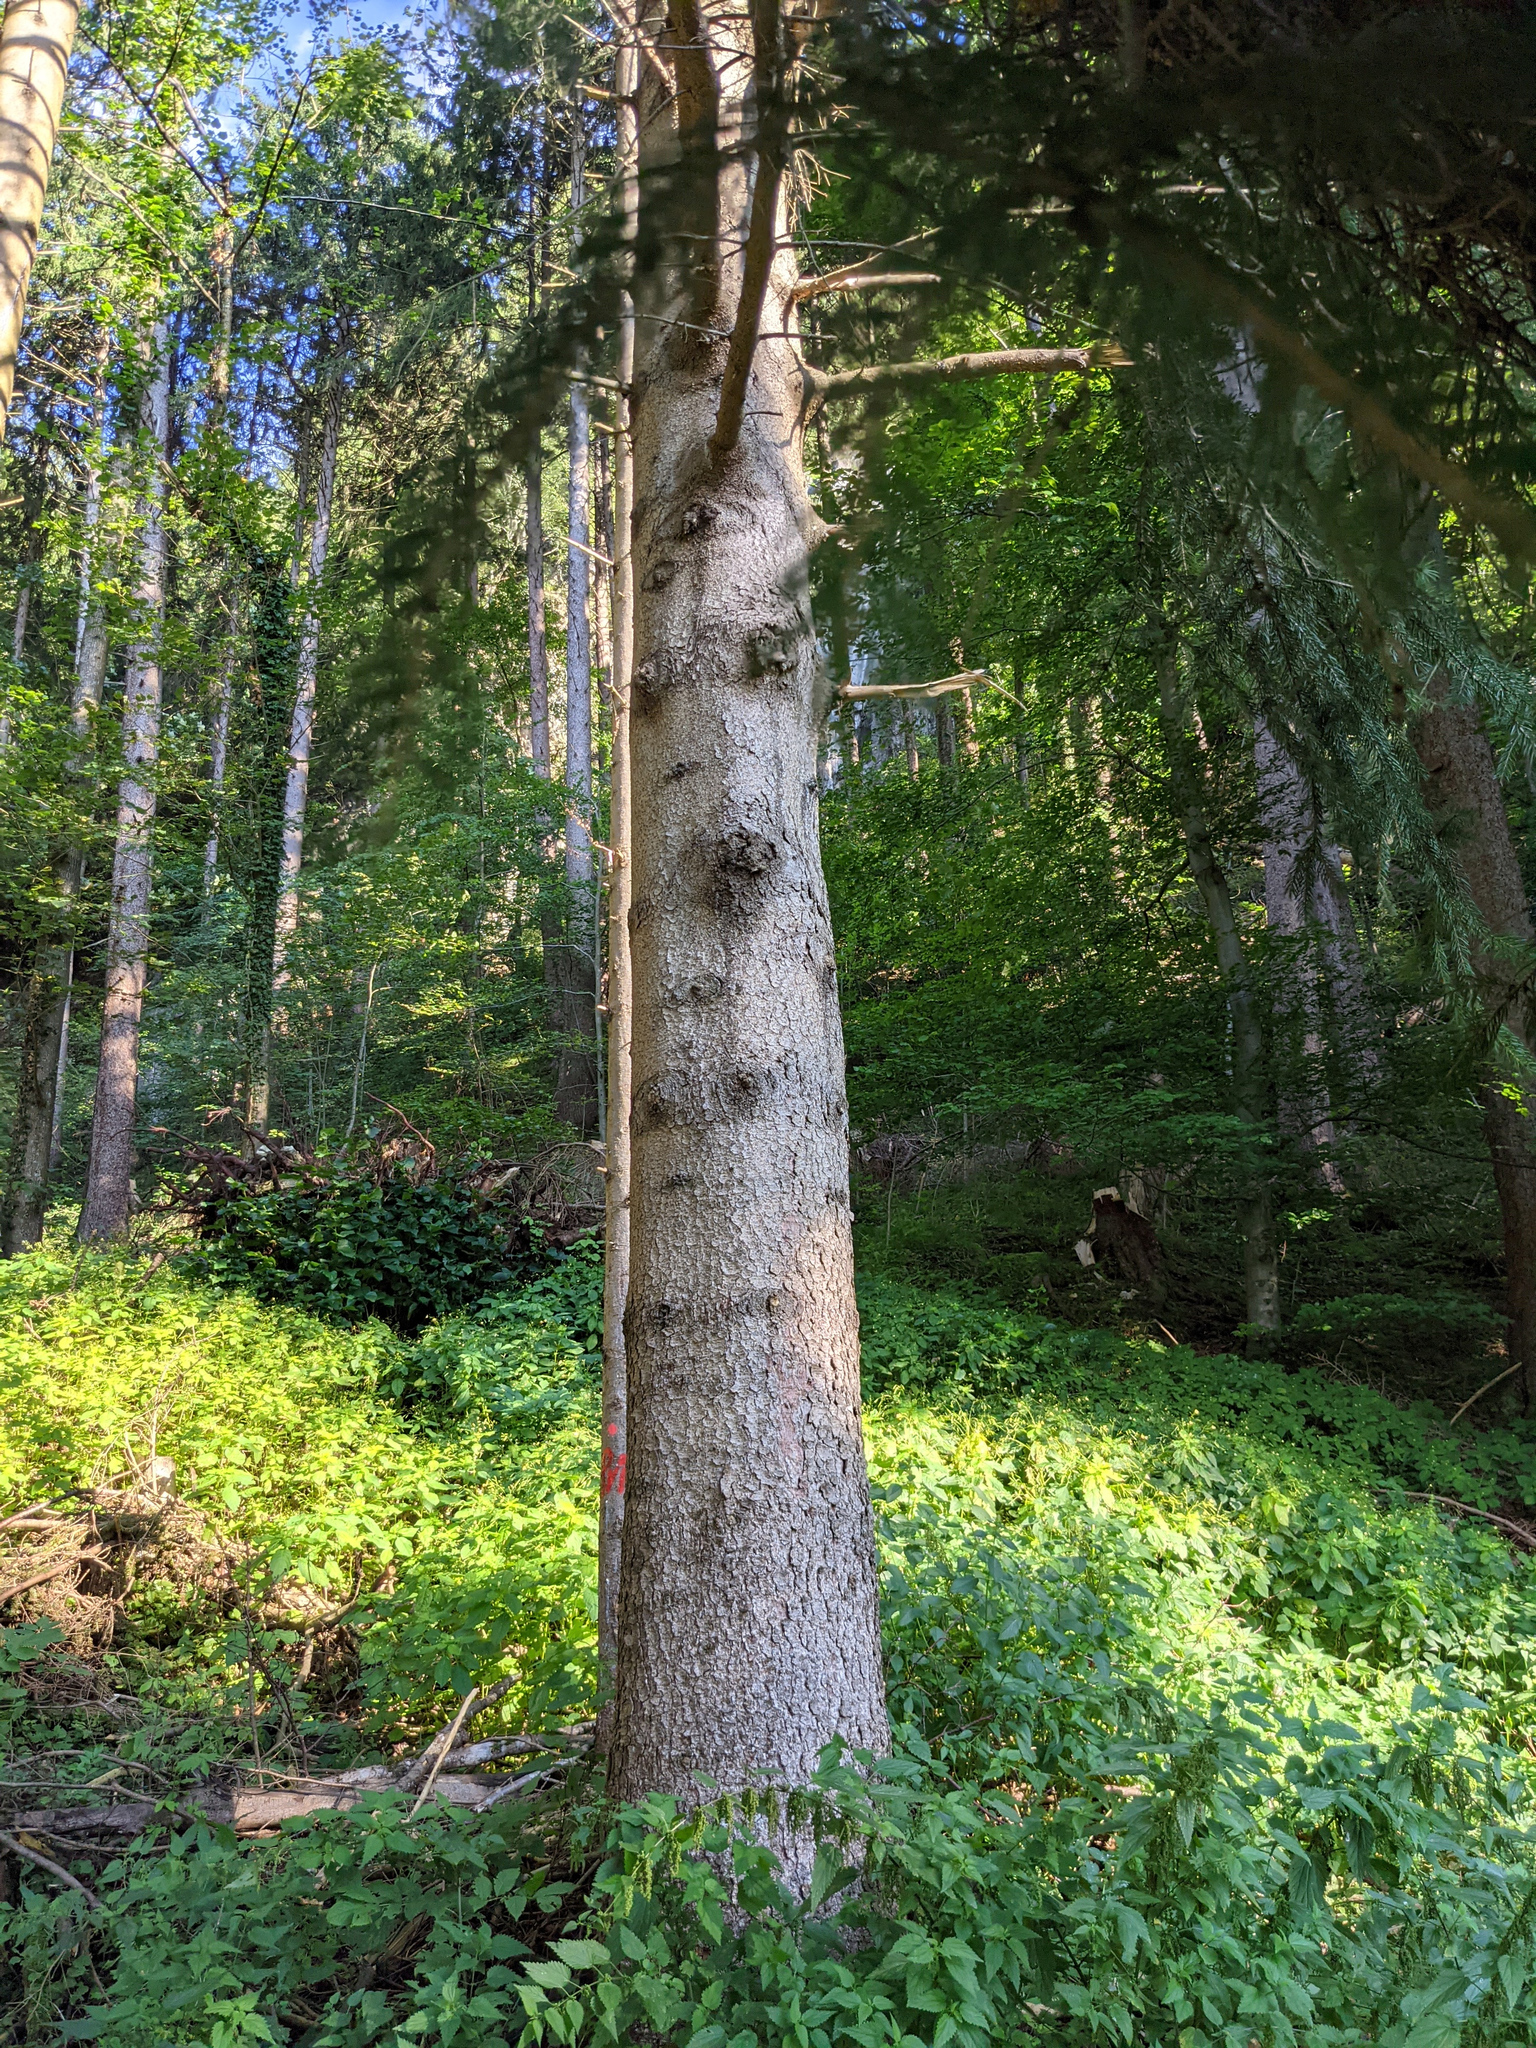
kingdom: Plantae
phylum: Tracheophyta
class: Pinopsida
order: Pinales
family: Pinaceae
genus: Picea
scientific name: Picea abies
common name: Norway spruce
